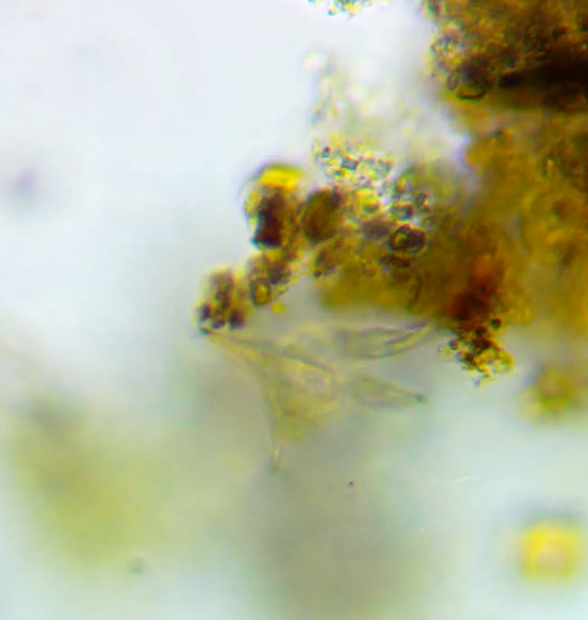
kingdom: Animalia
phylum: Rotifera
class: Eurotatoria
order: Ploima
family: Euchlanidae
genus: Euchlanis
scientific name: Euchlanis triquetra
